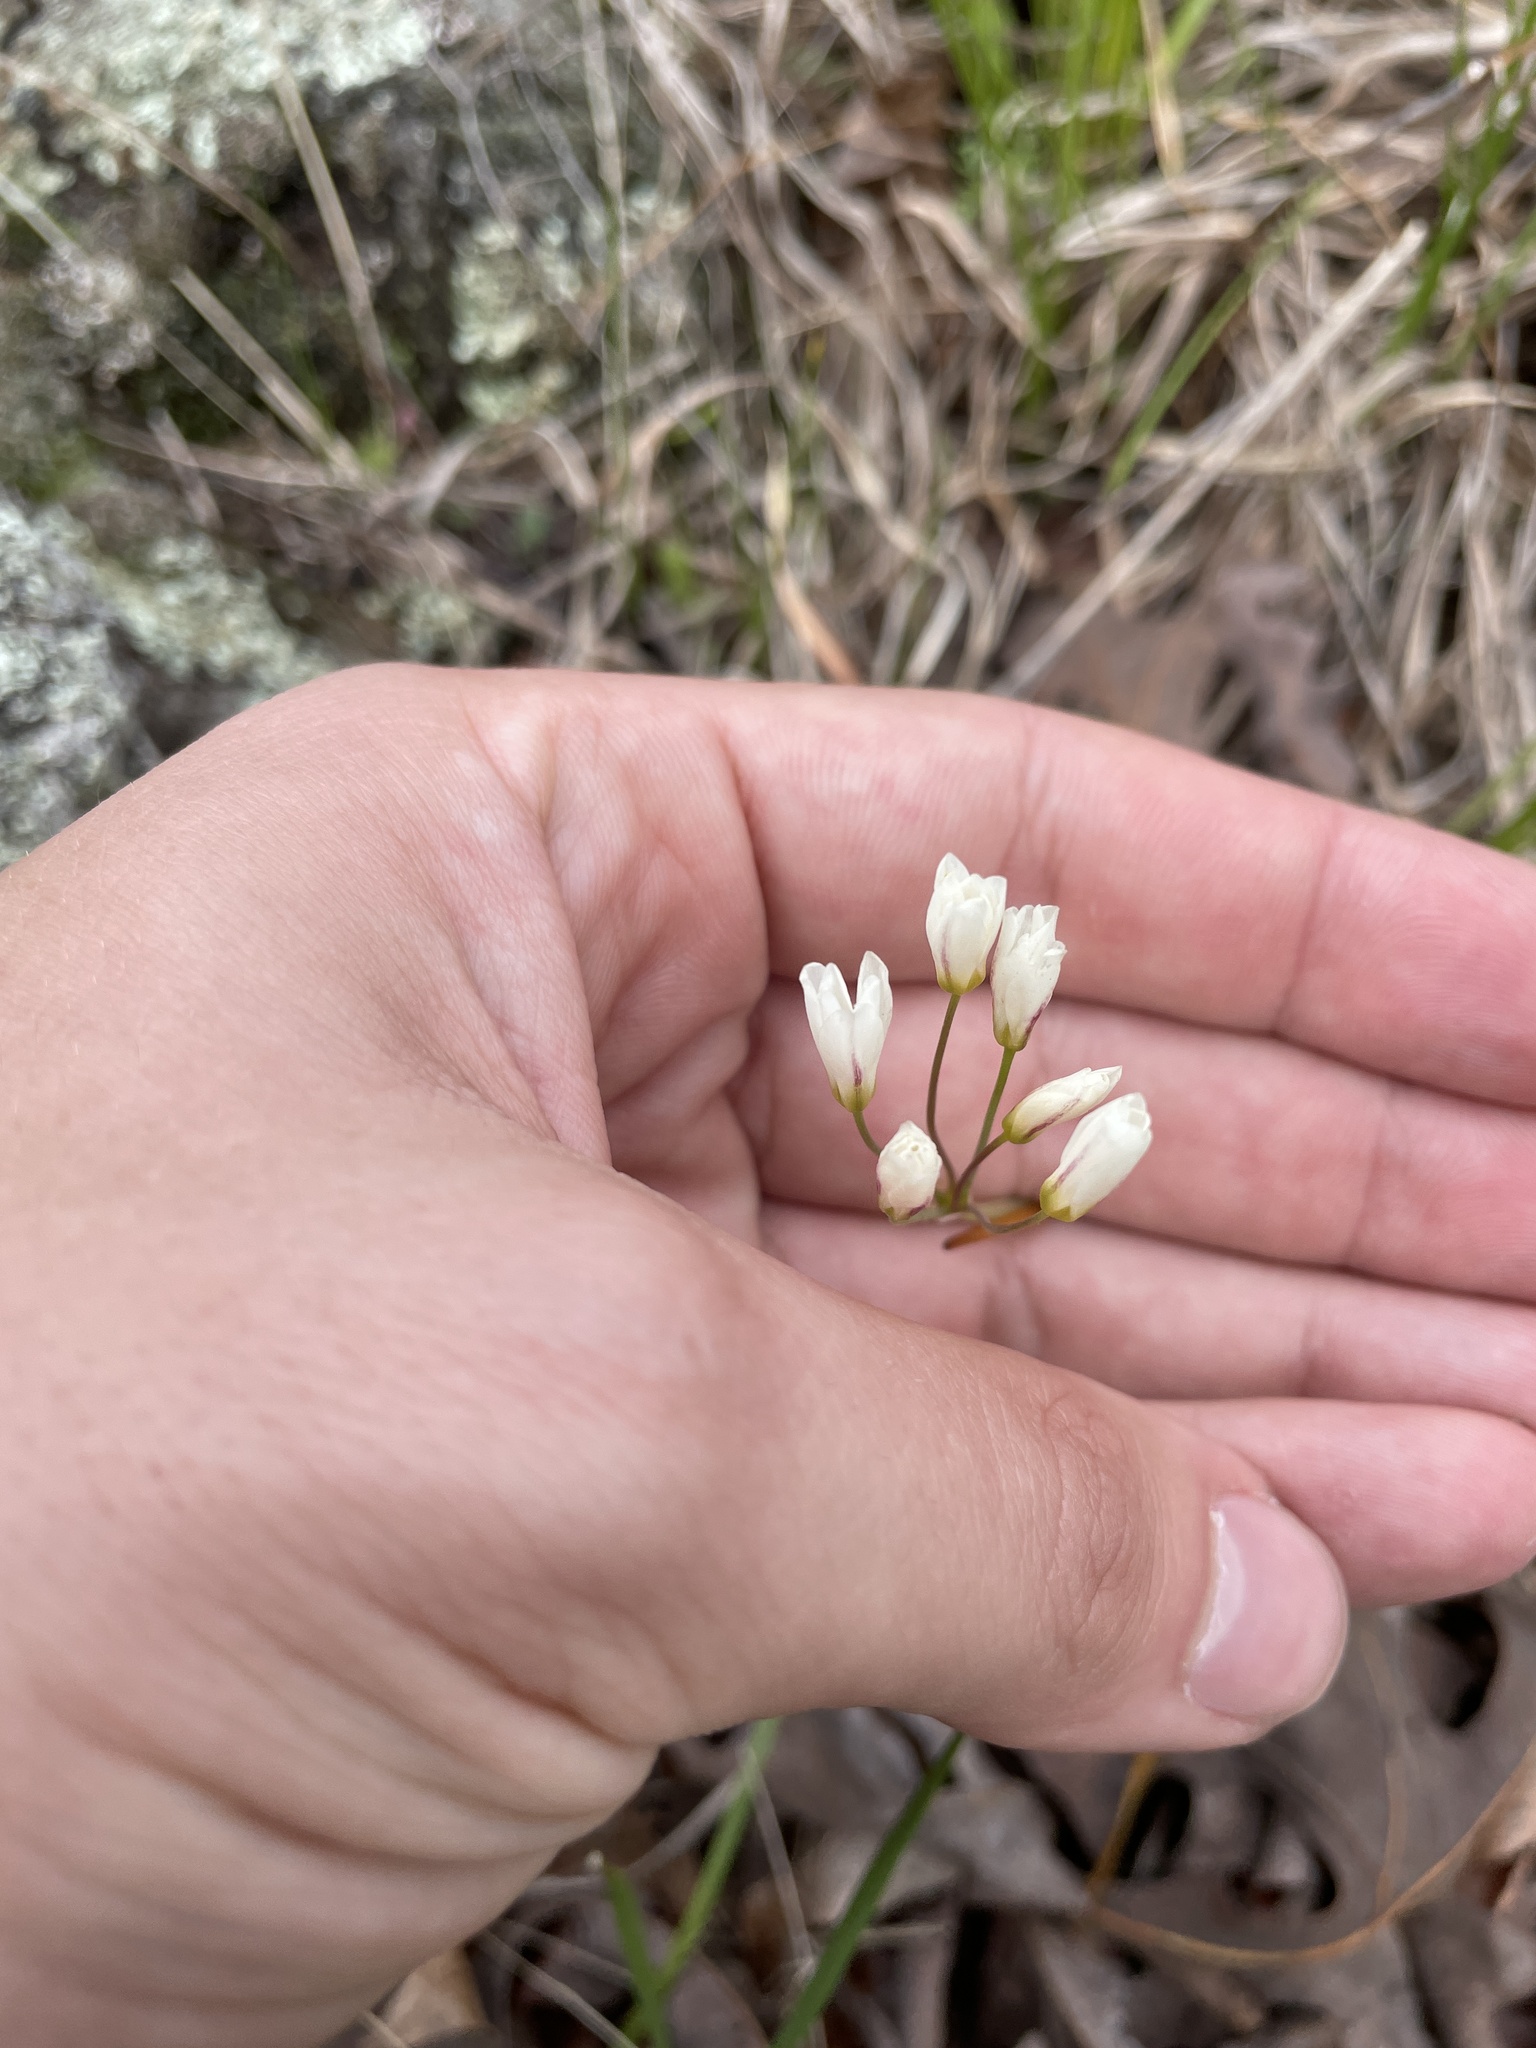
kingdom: Plantae
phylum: Tracheophyta
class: Liliopsida
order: Asparagales
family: Amaryllidaceae
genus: Nothoscordum
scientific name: Nothoscordum bivalve
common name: Crow-poison
